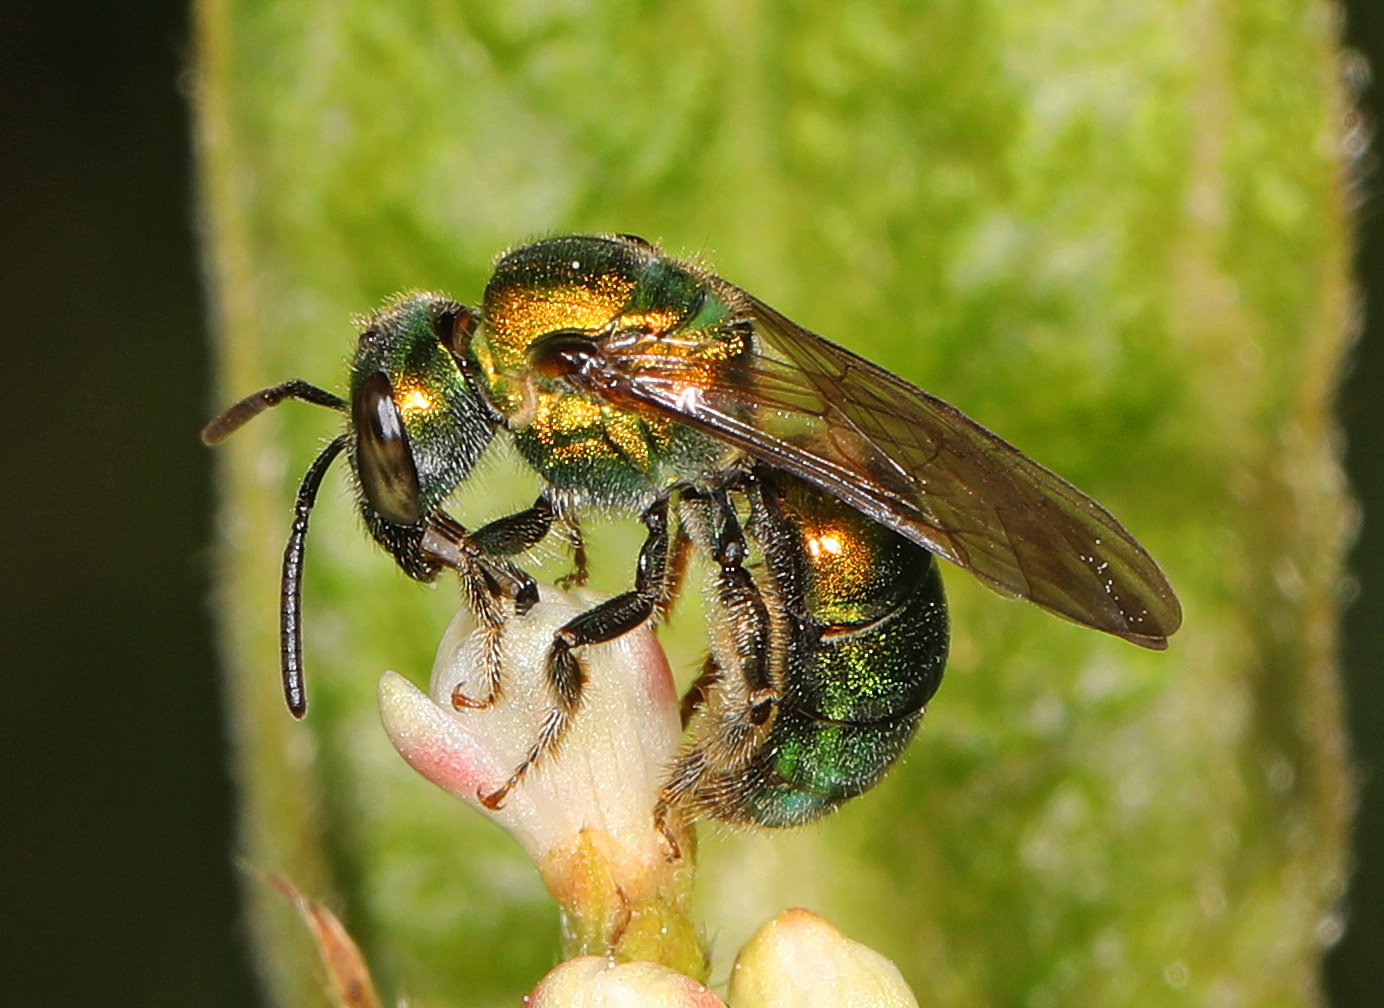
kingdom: Animalia
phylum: Arthropoda
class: Insecta
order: Hymenoptera
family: Halictidae
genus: Augochlora
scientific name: Augochlora pura
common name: Pure green sweat bee
